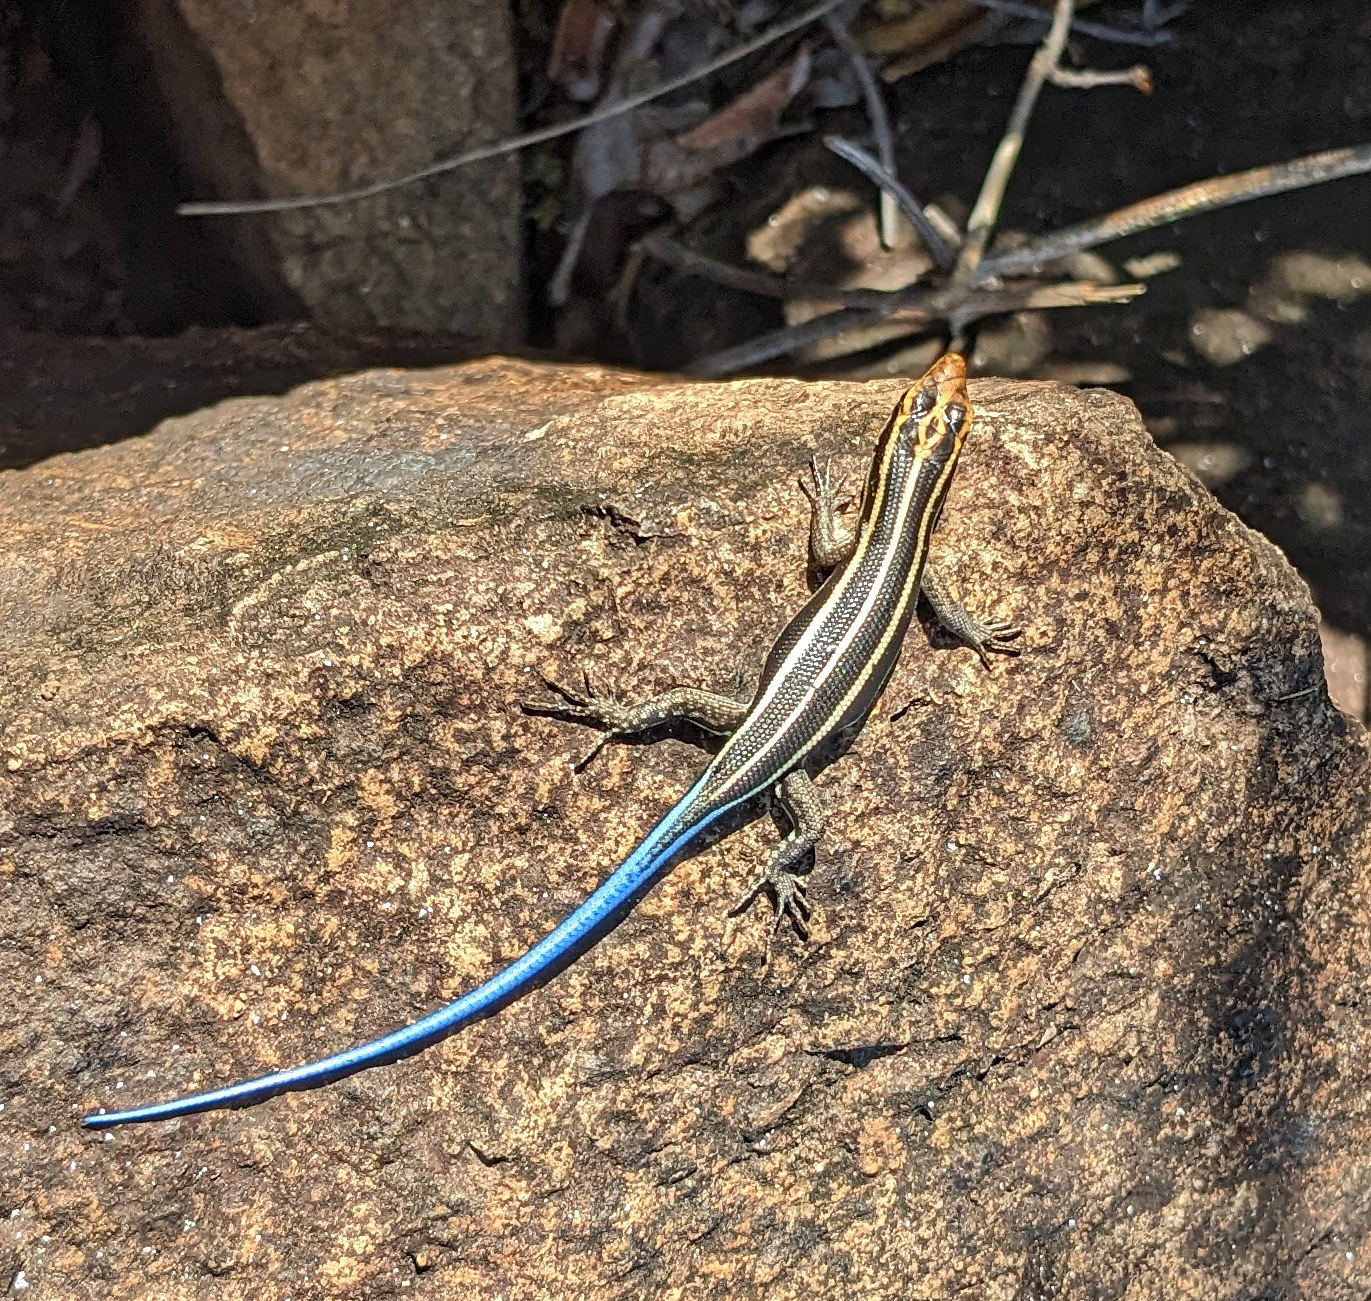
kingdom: Animalia
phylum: Chordata
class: Squamata
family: Scincidae
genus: Trachylepis
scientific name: Trachylepis margaritifera
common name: Rainbow skink
